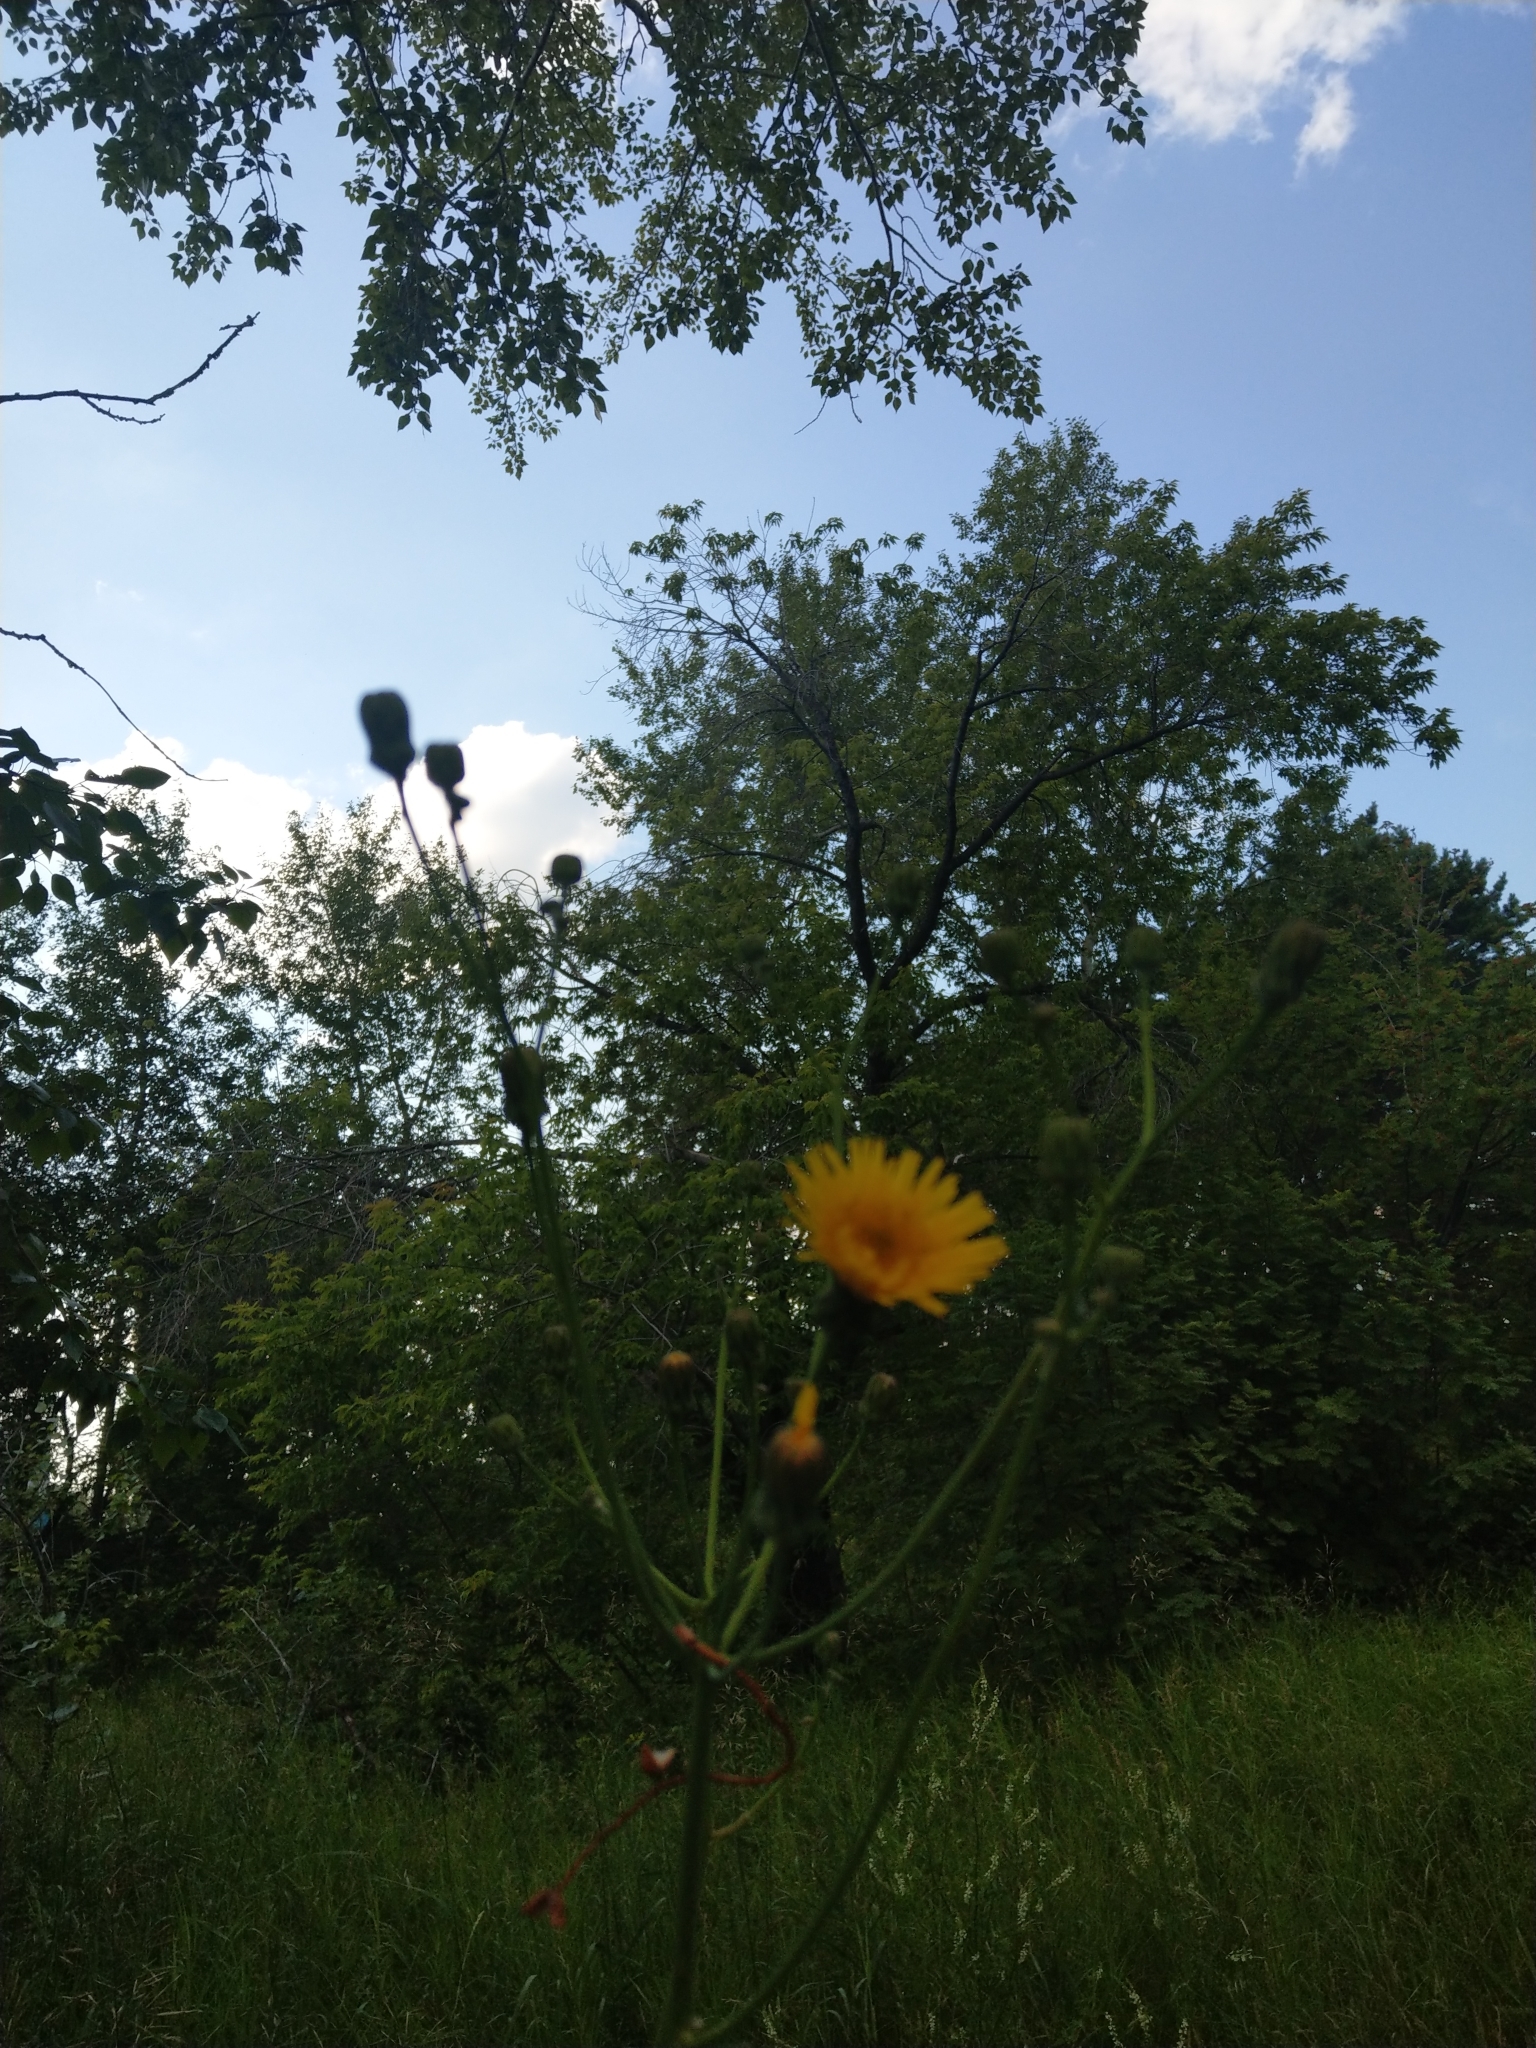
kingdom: Plantae
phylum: Tracheophyta
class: Magnoliopsida
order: Asterales
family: Asteraceae
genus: Sonchus
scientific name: Sonchus arvensis
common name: Perennial sow-thistle
